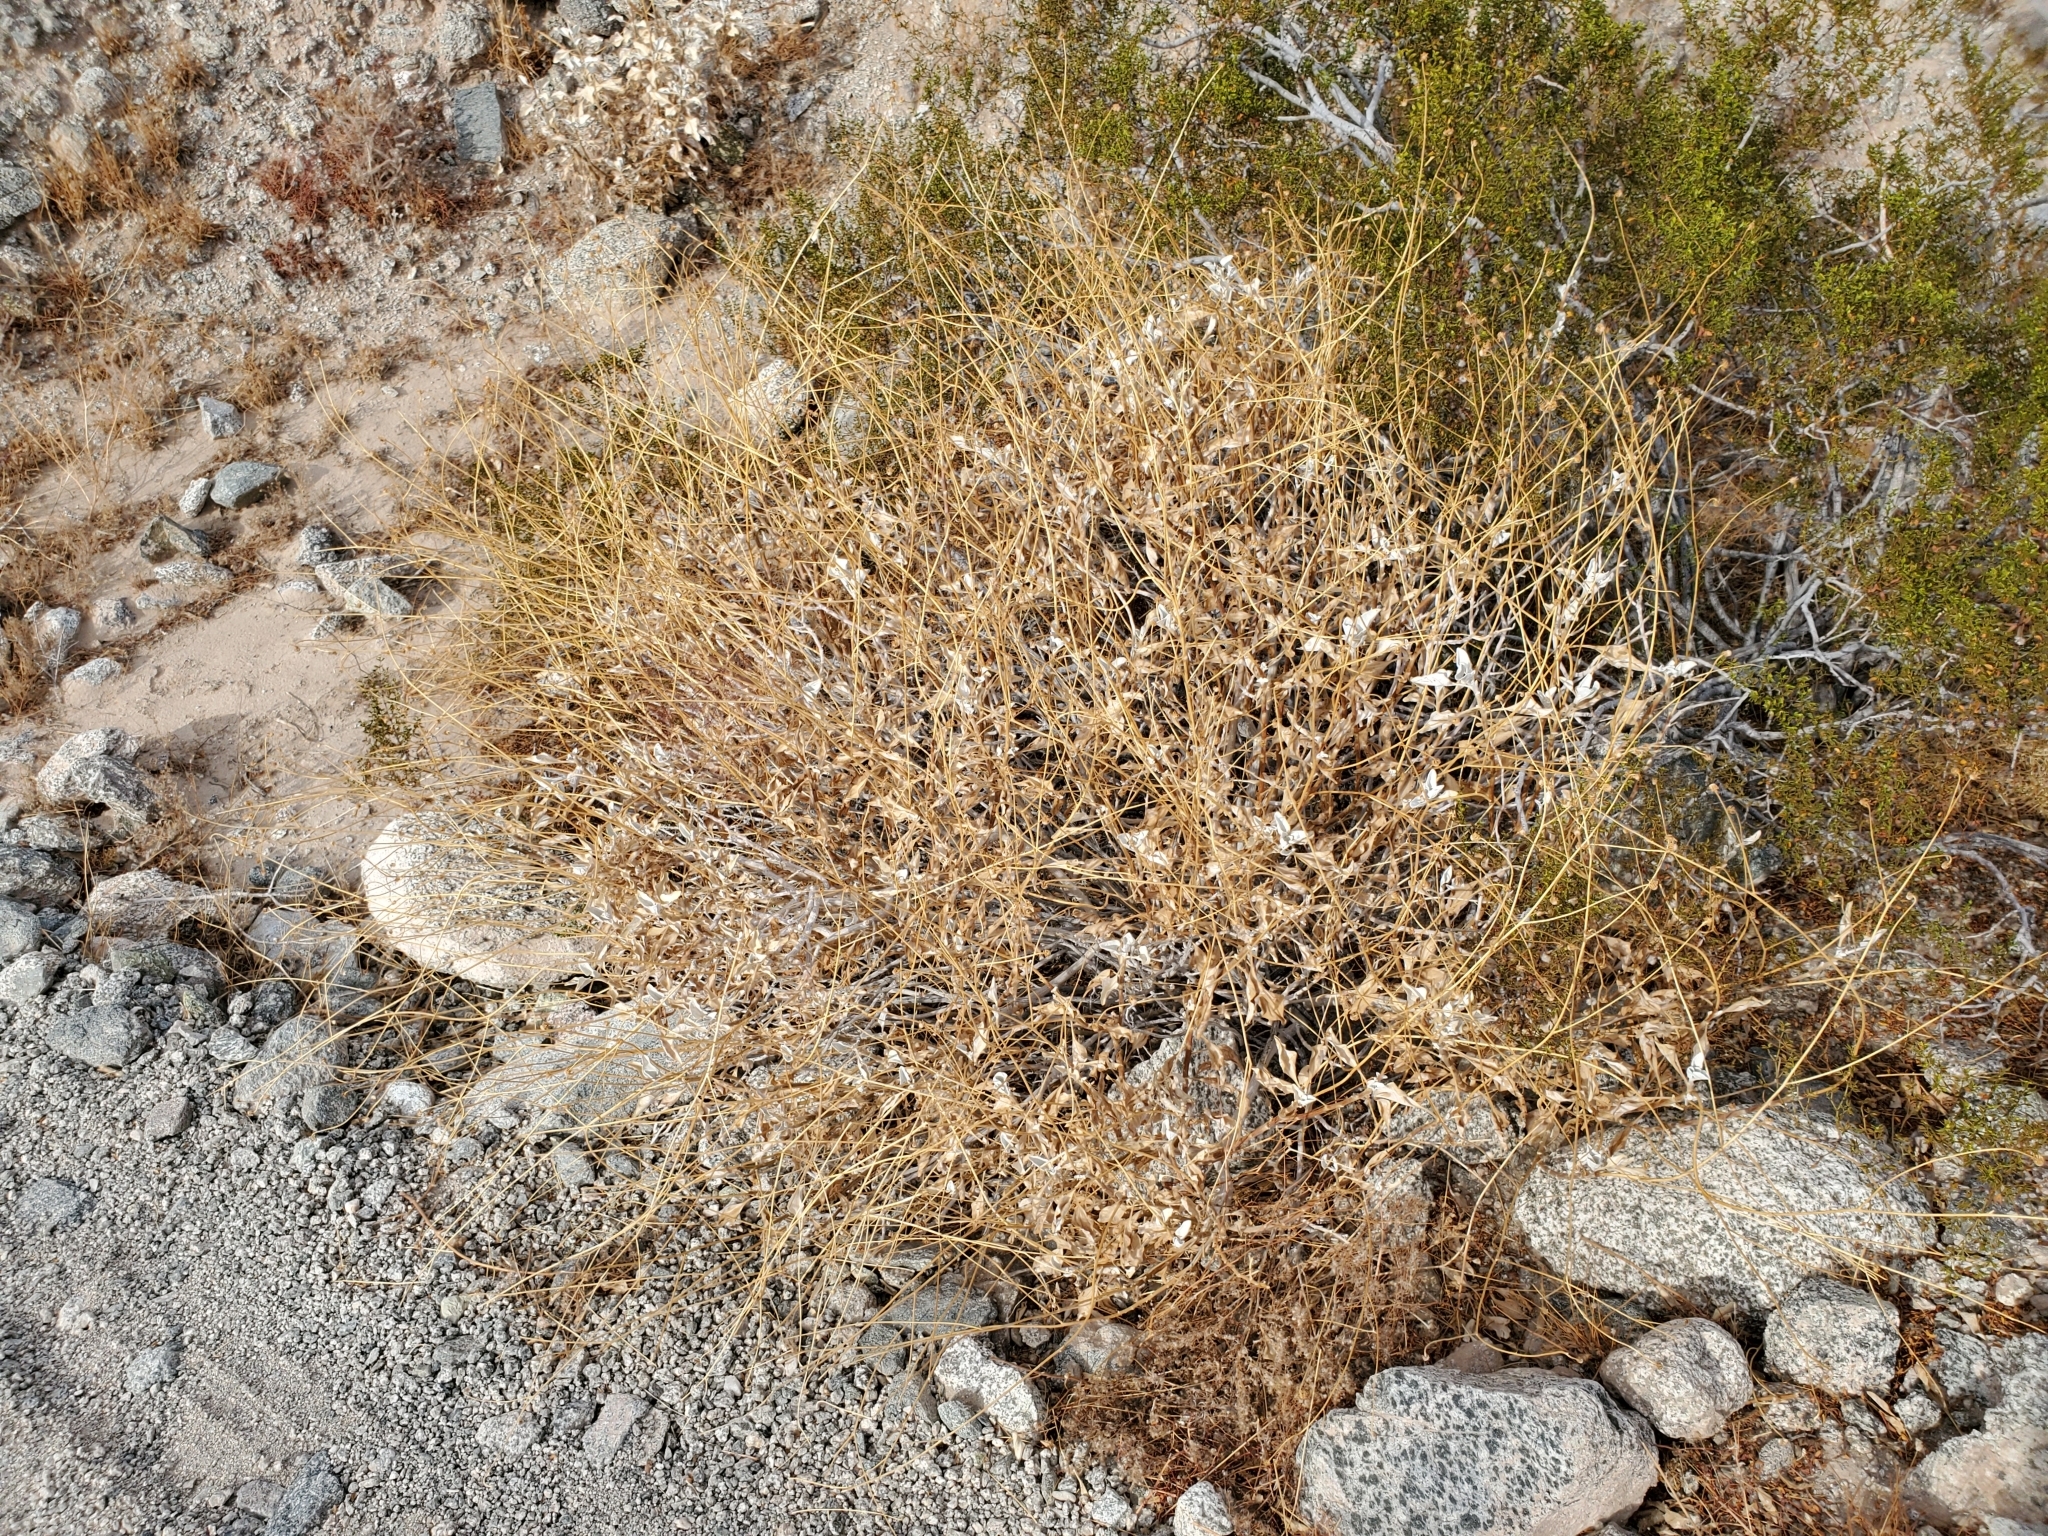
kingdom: Plantae
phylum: Tracheophyta
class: Magnoliopsida
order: Asterales
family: Asteraceae
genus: Encelia
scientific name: Encelia farinosa
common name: Brittlebush
